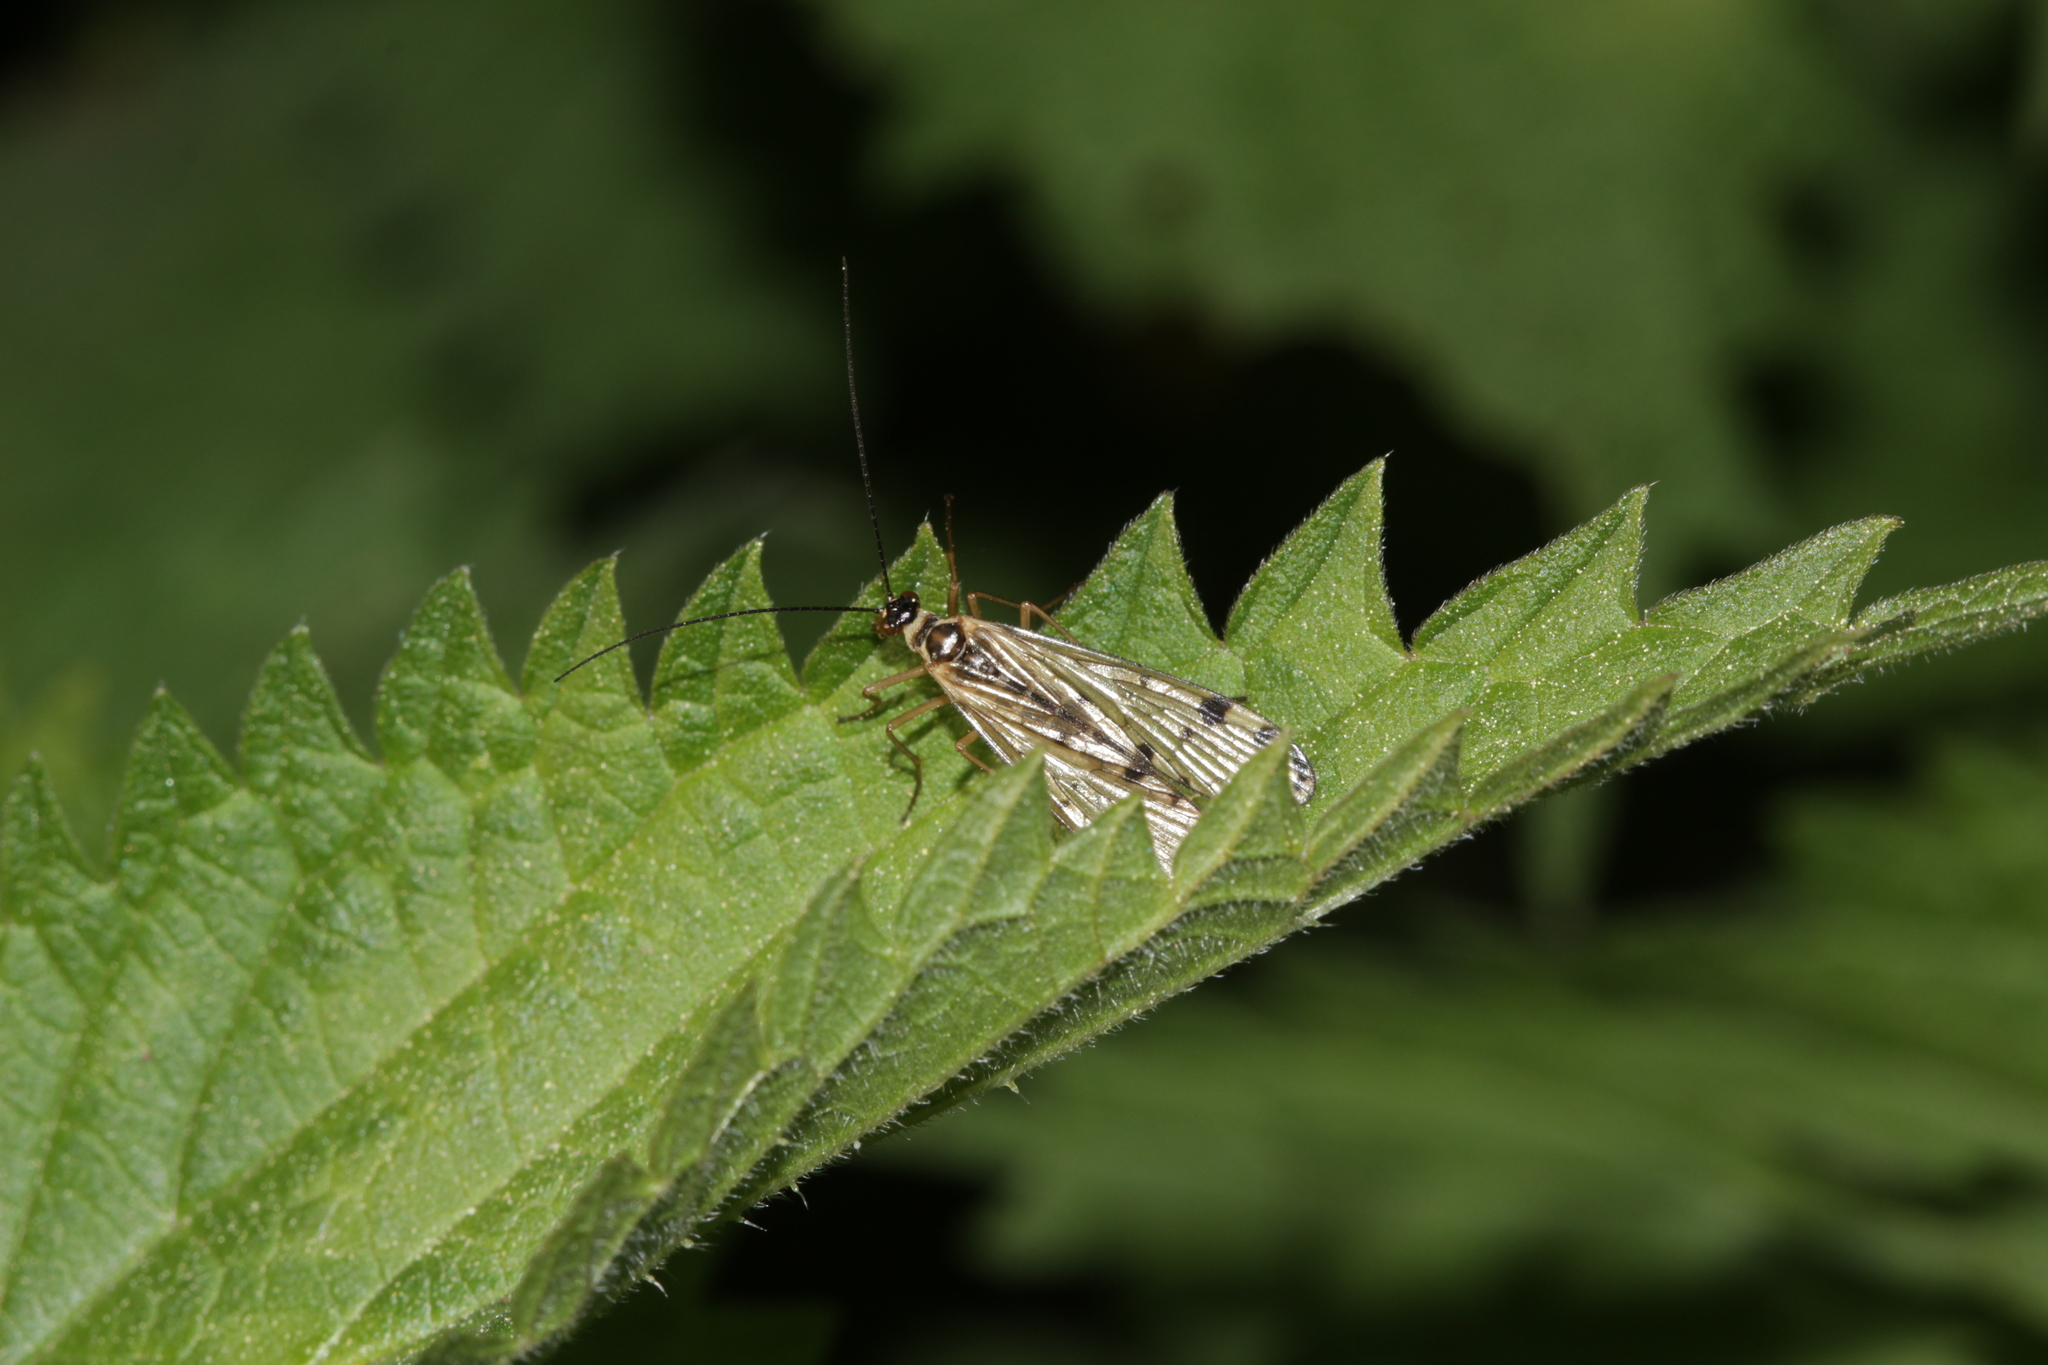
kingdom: Animalia
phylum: Arthropoda
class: Insecta
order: Mecoptera
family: Panorpidae
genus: Panorpa
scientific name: Panorpa germanica
